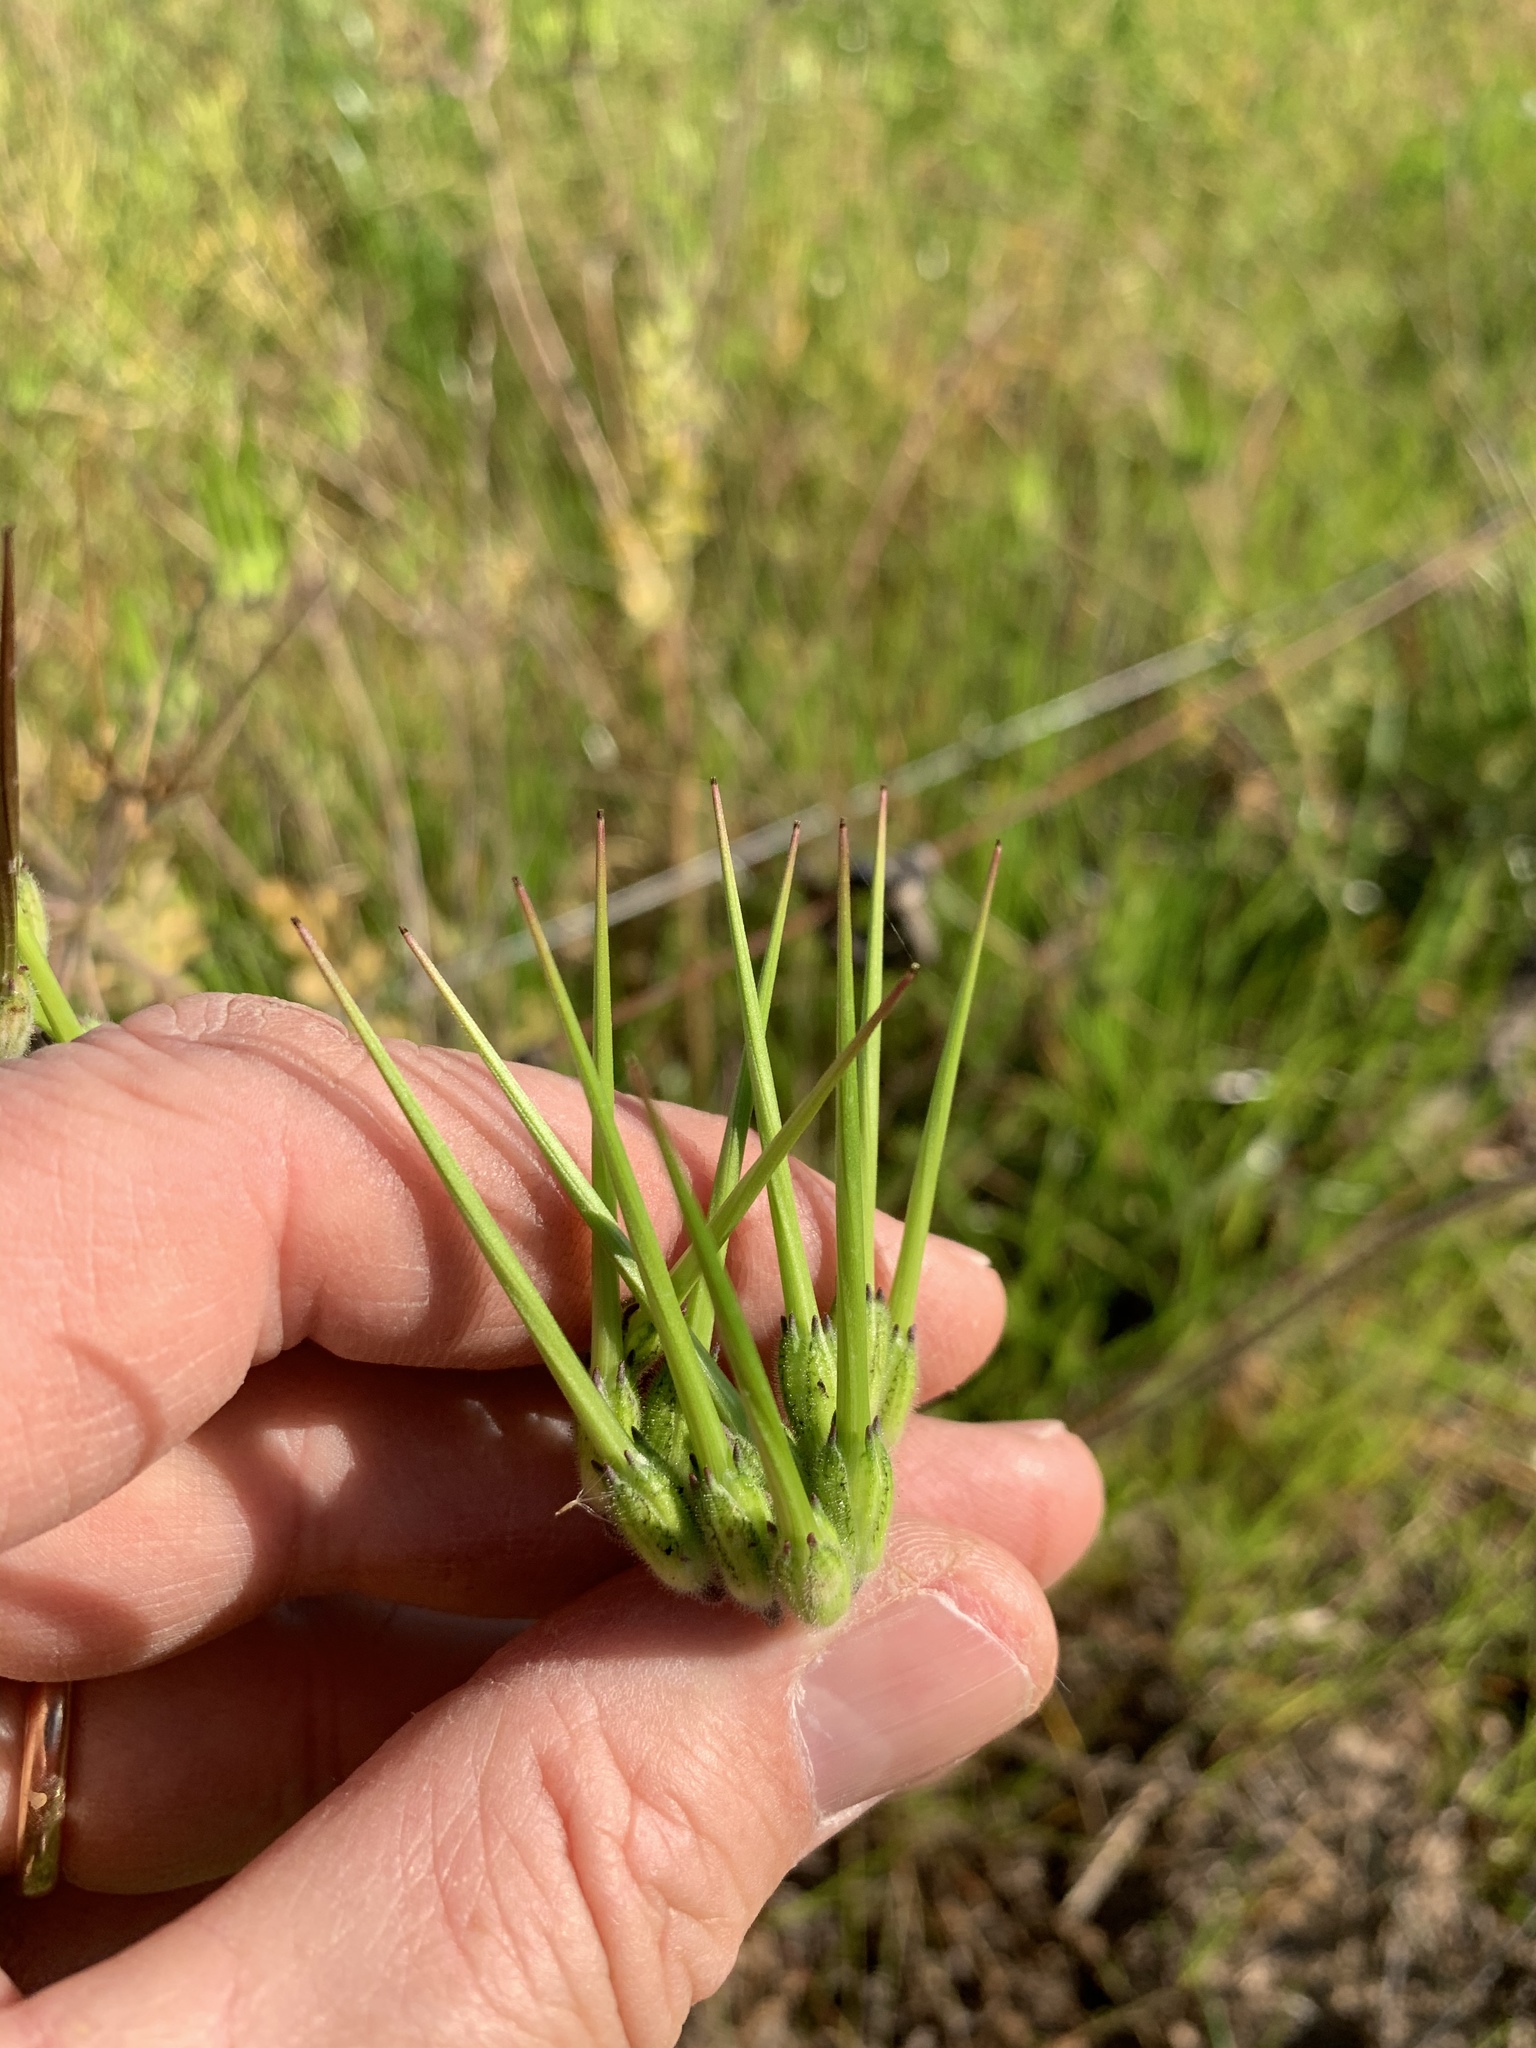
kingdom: Plantae
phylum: Tracheophyta
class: Magnoliopsida
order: Geraniales
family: Geraniaceae
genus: Erodium
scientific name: Erodium moschatum
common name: Musk stork's-bill
